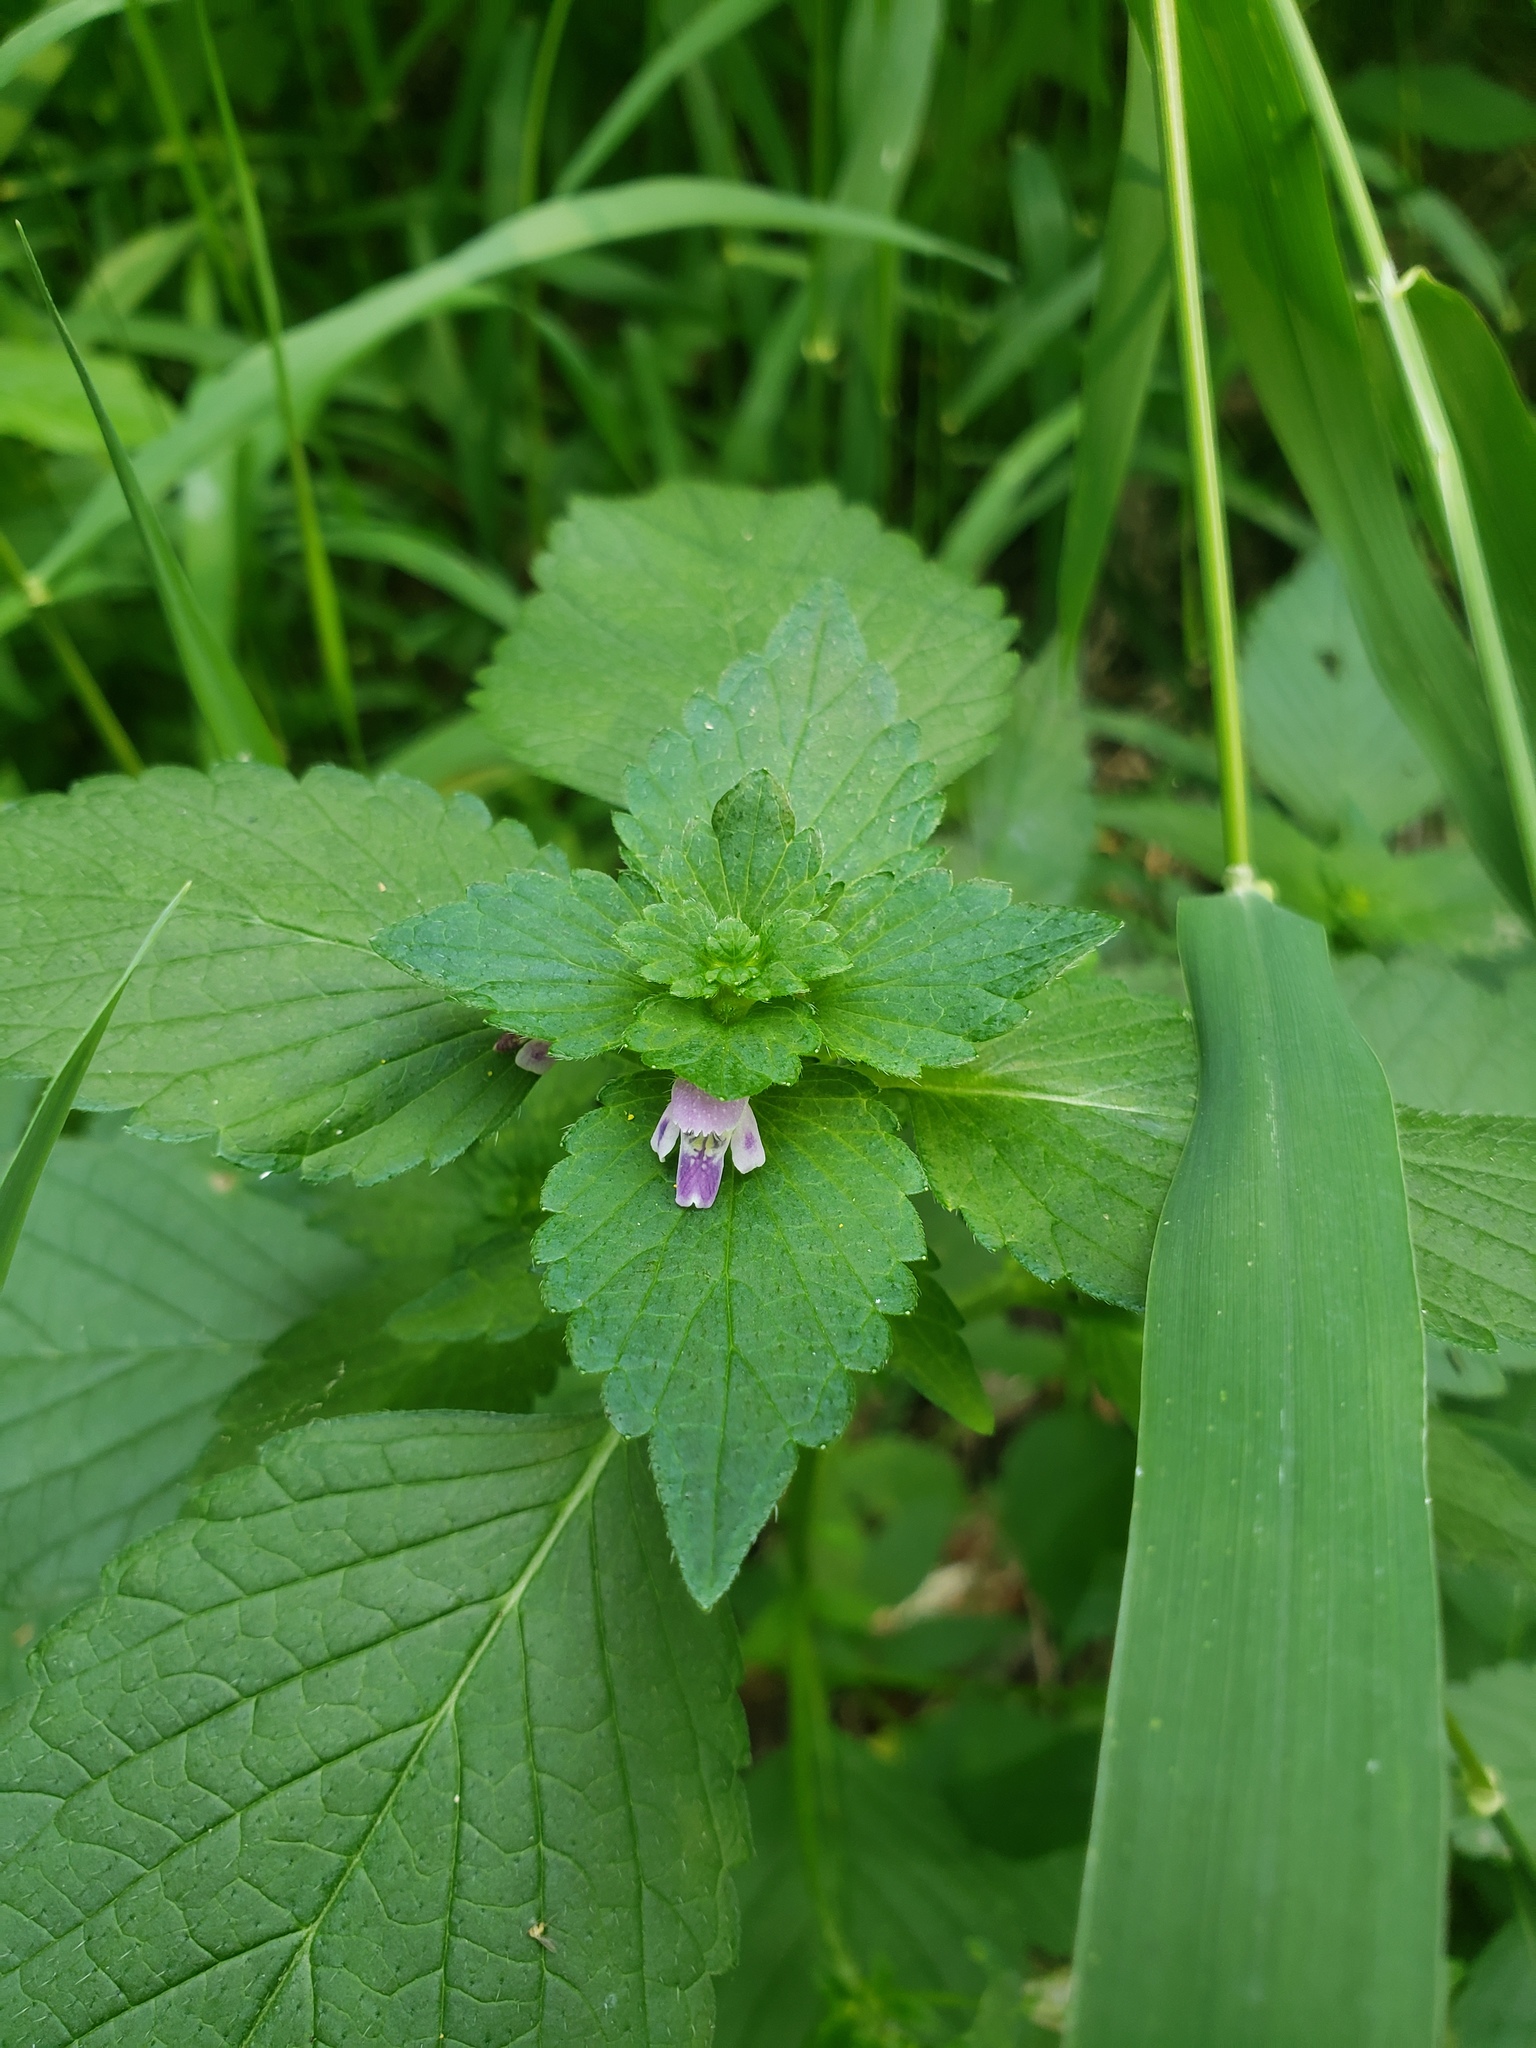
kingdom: Plantae
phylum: Tracheophyta
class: Magnoliopsida
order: Lamiales
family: Lamiaceae
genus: Galeopsis
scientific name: Galeopsis bifida
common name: Bifid hemp-nettle
